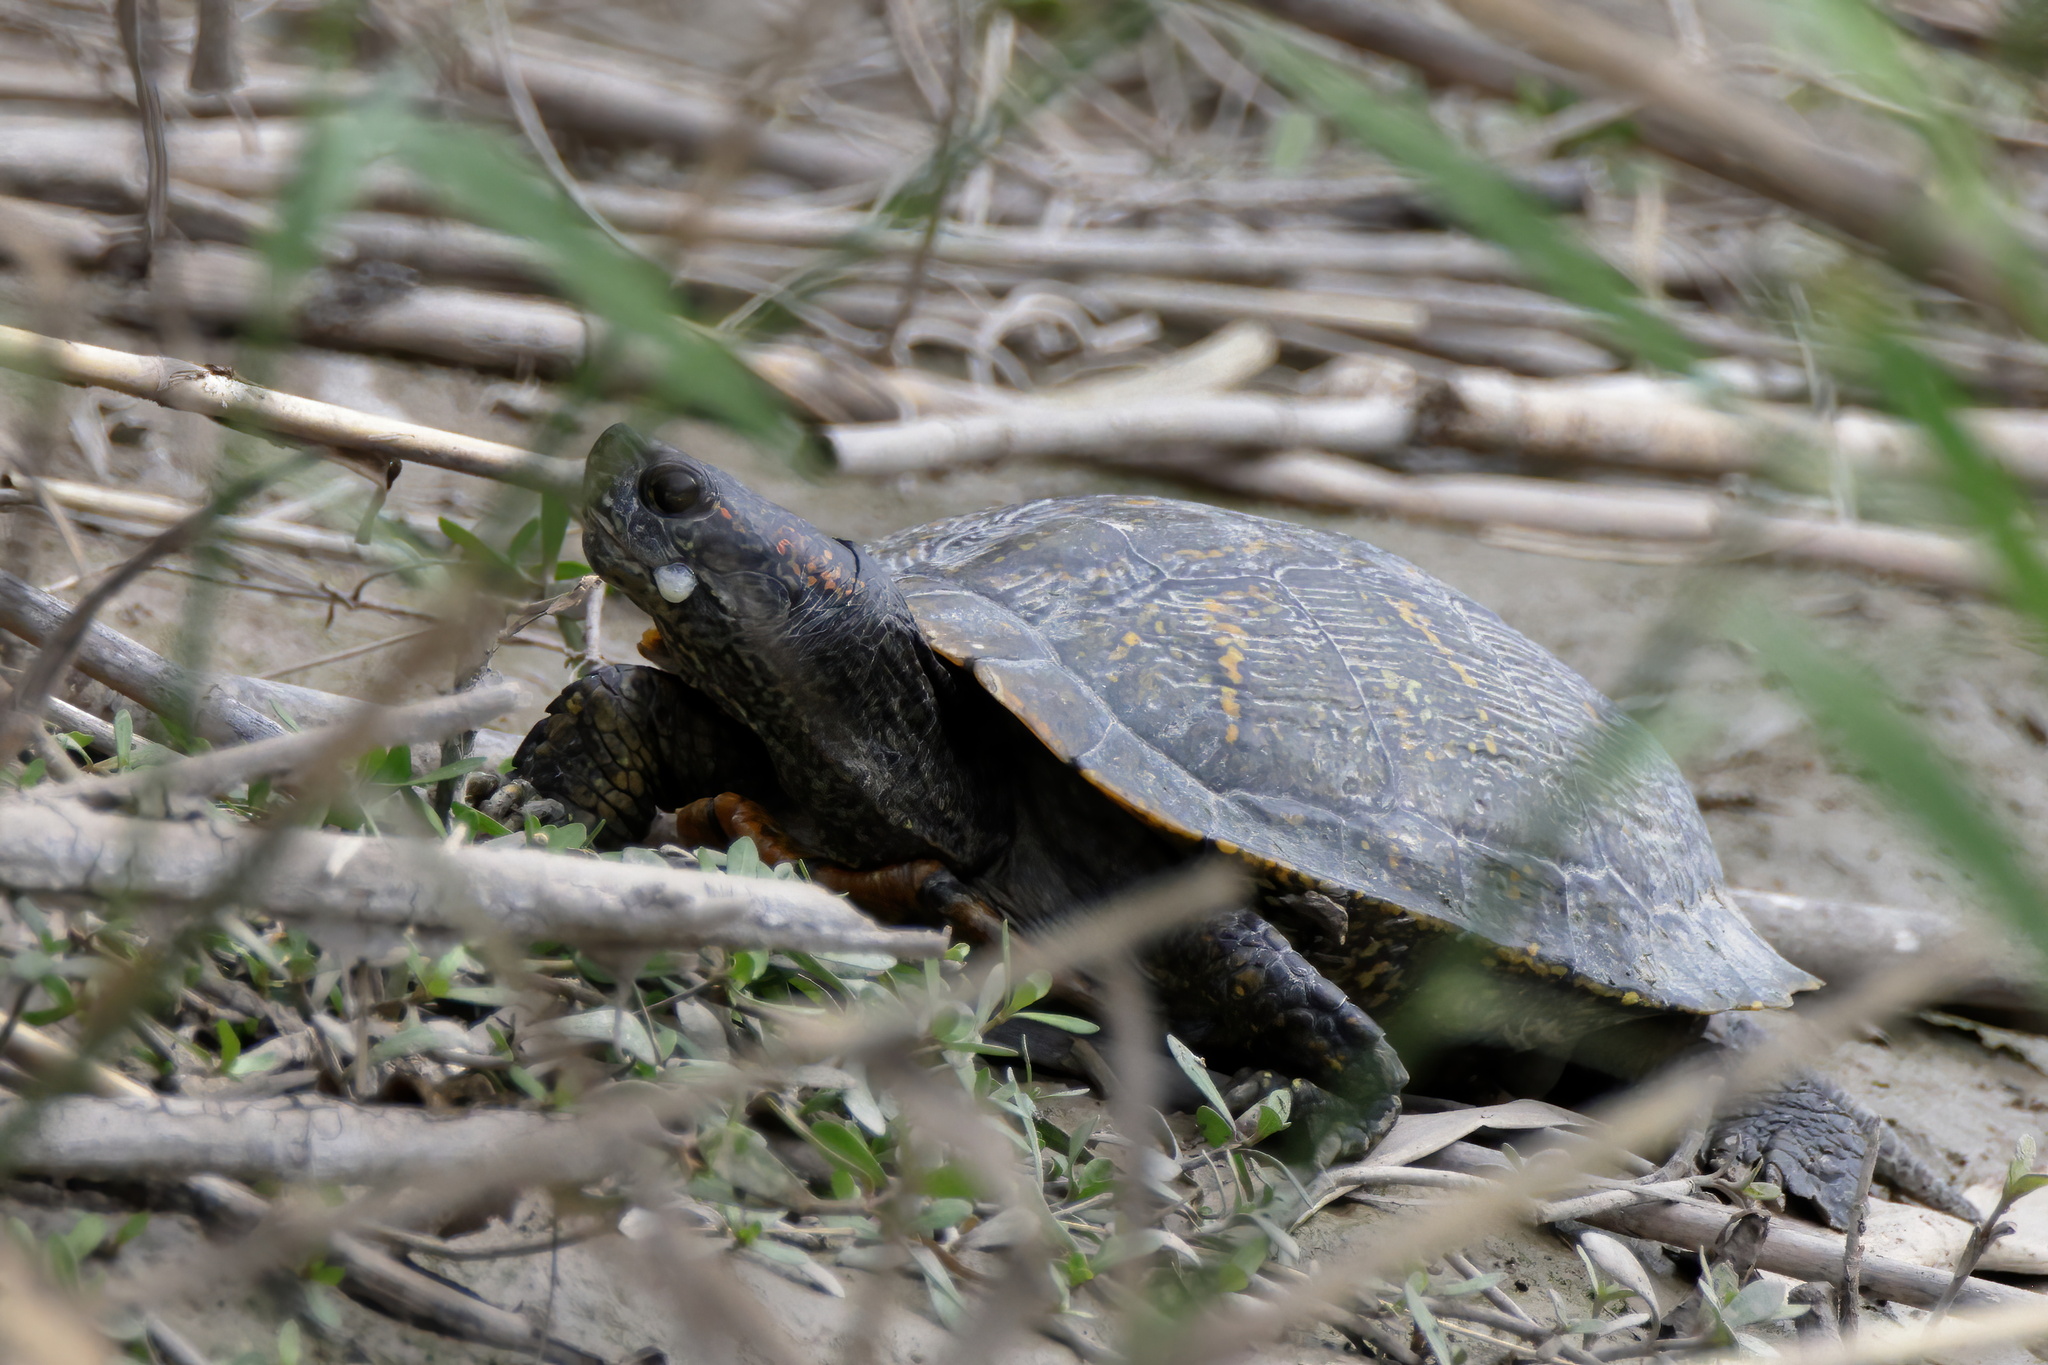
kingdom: Animalia
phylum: Chordata
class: Testudines
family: Emydidae
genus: Trachemys
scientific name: Trachemys scripta
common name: Slider
